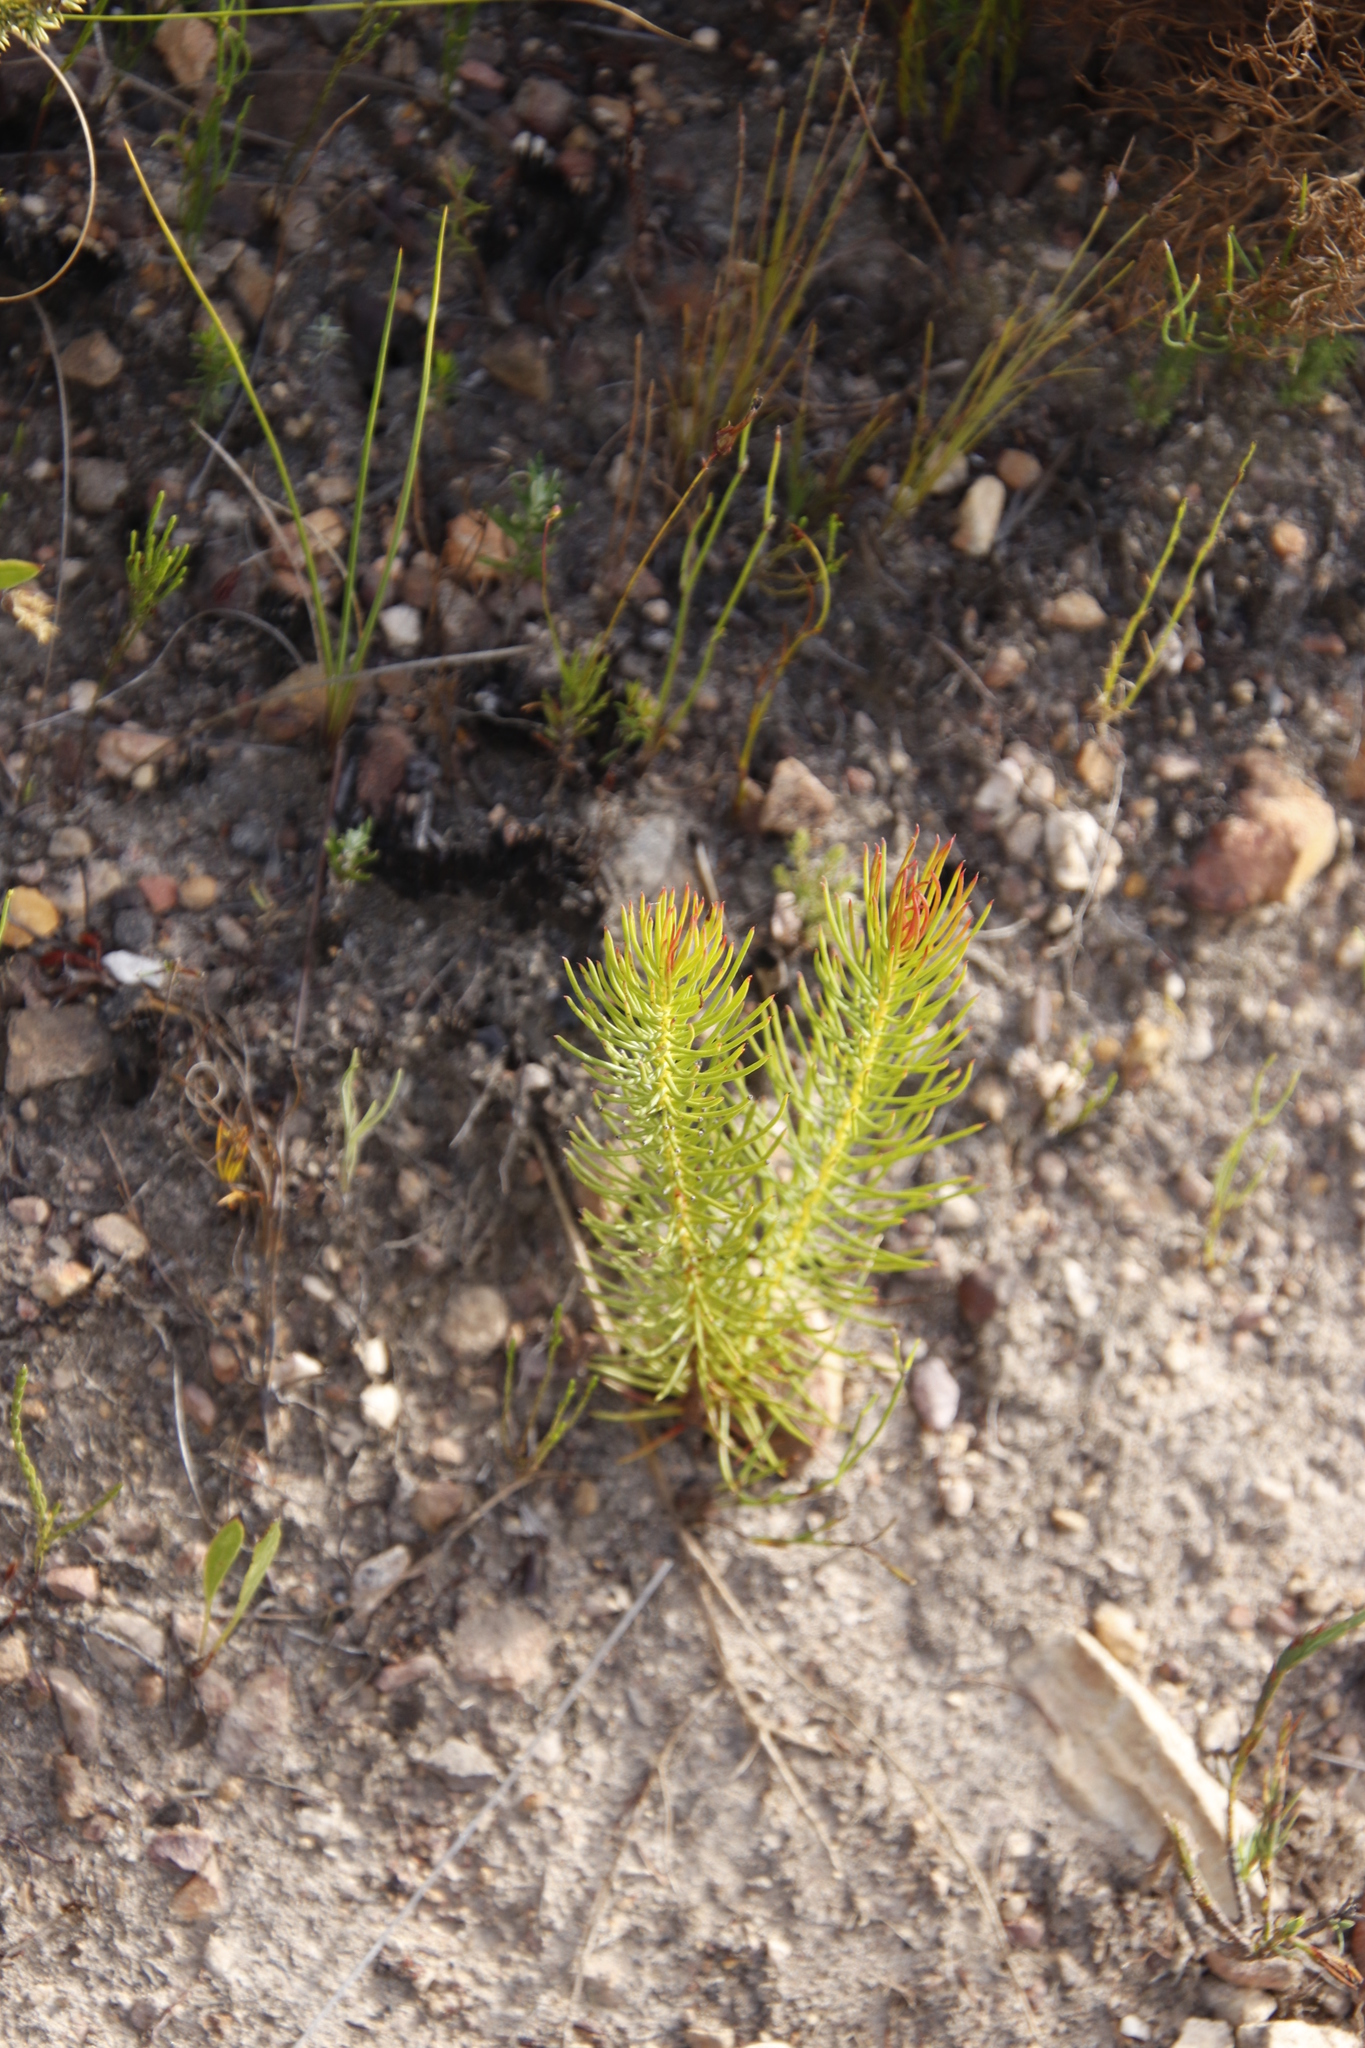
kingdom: Plantae
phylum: Tracheophyta
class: Magnoliopsida
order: Proteales
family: Proteaceae
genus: Protea
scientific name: Protea subulifolia
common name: Awl-leaf sugarbush
